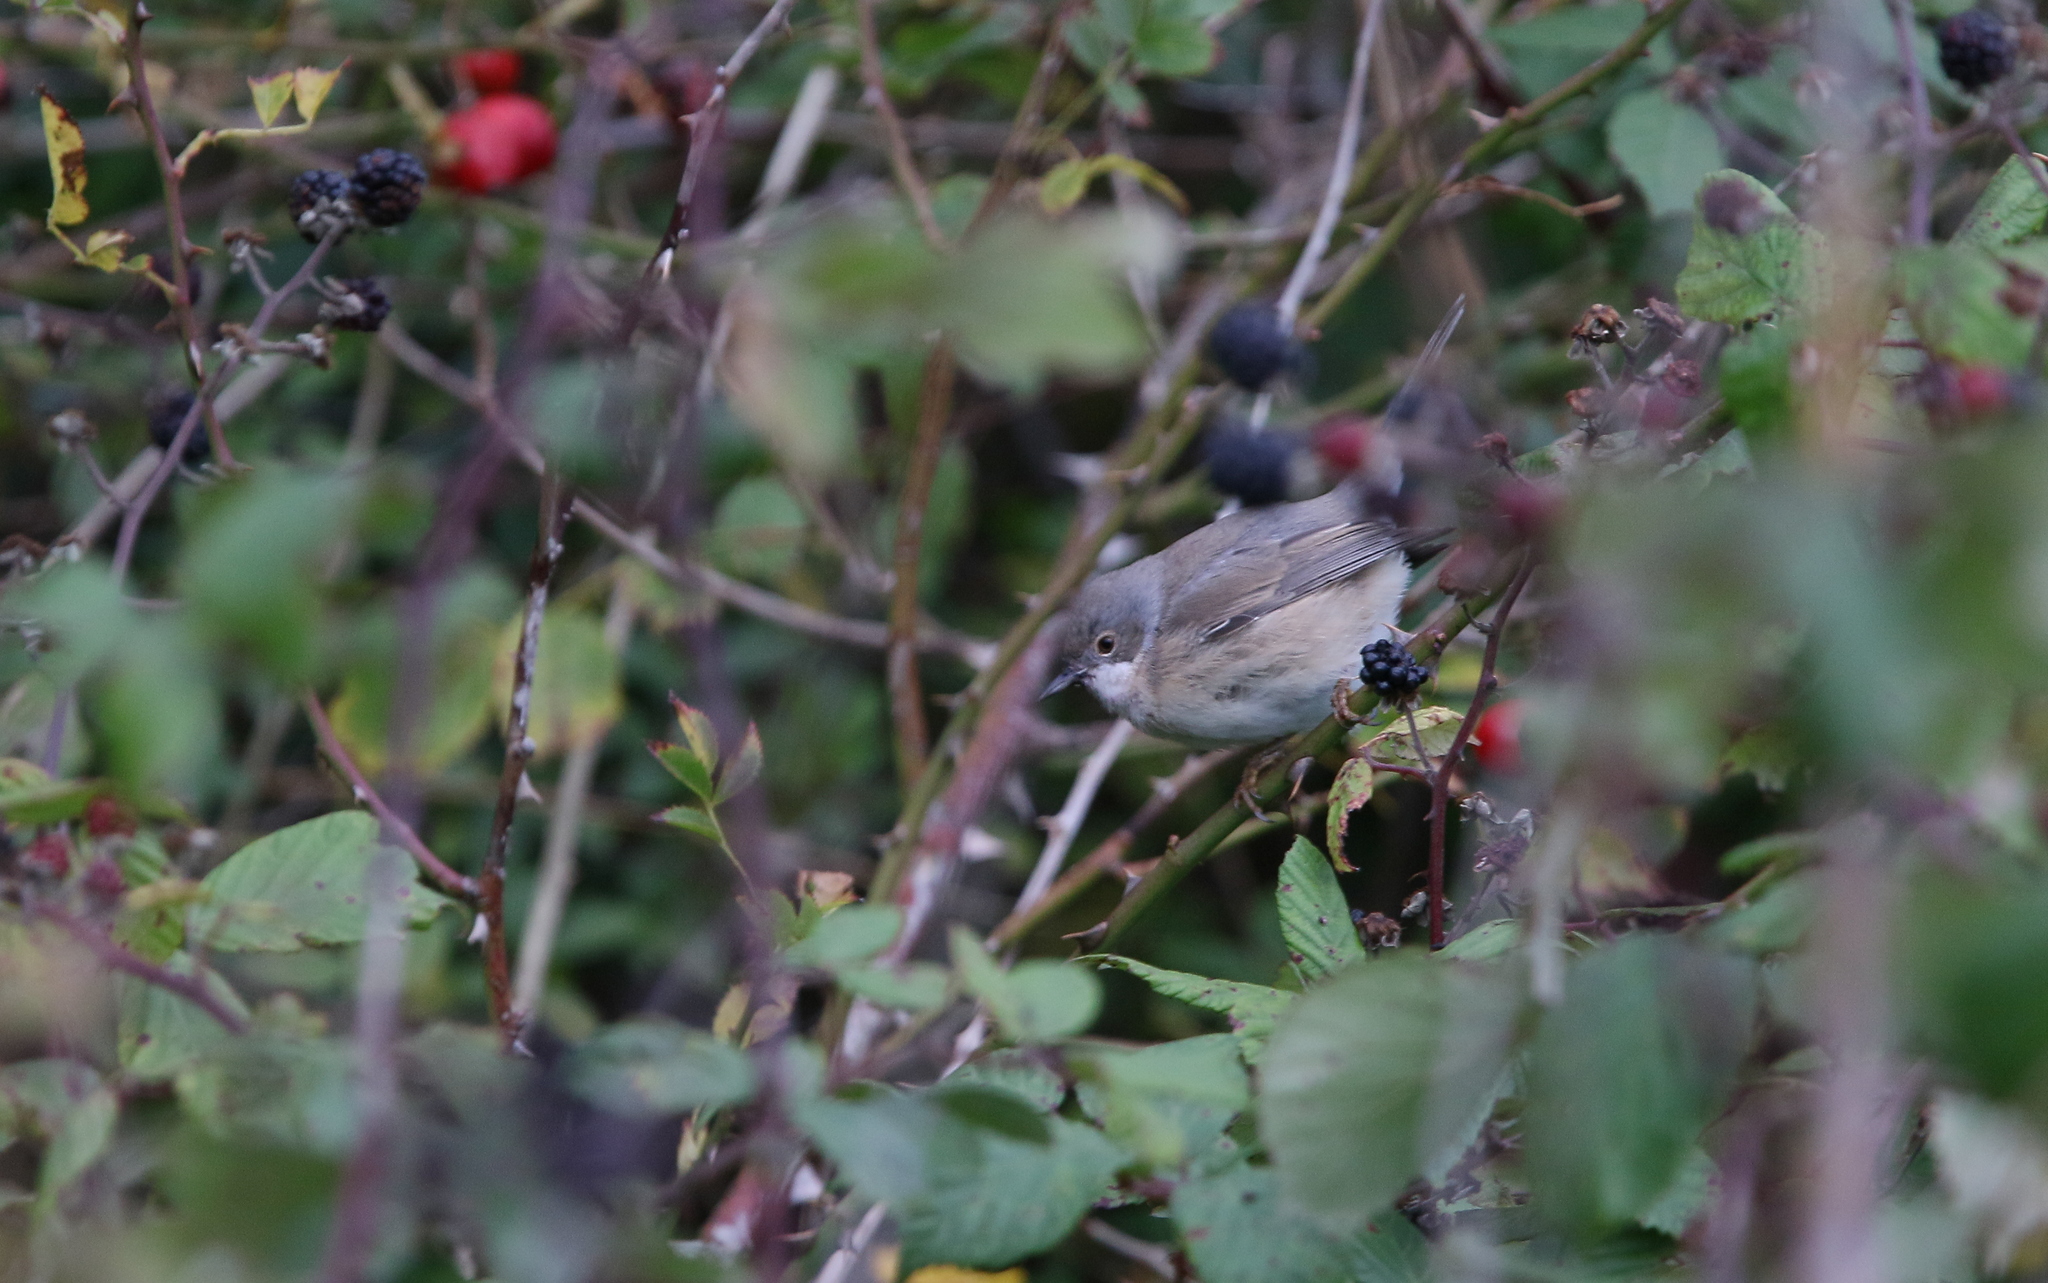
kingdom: Animalia
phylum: Chordata
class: Aves
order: Passeriformes
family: Sylviidae
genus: Curruca
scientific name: Curruca cantillans
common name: Subalpine warbler
